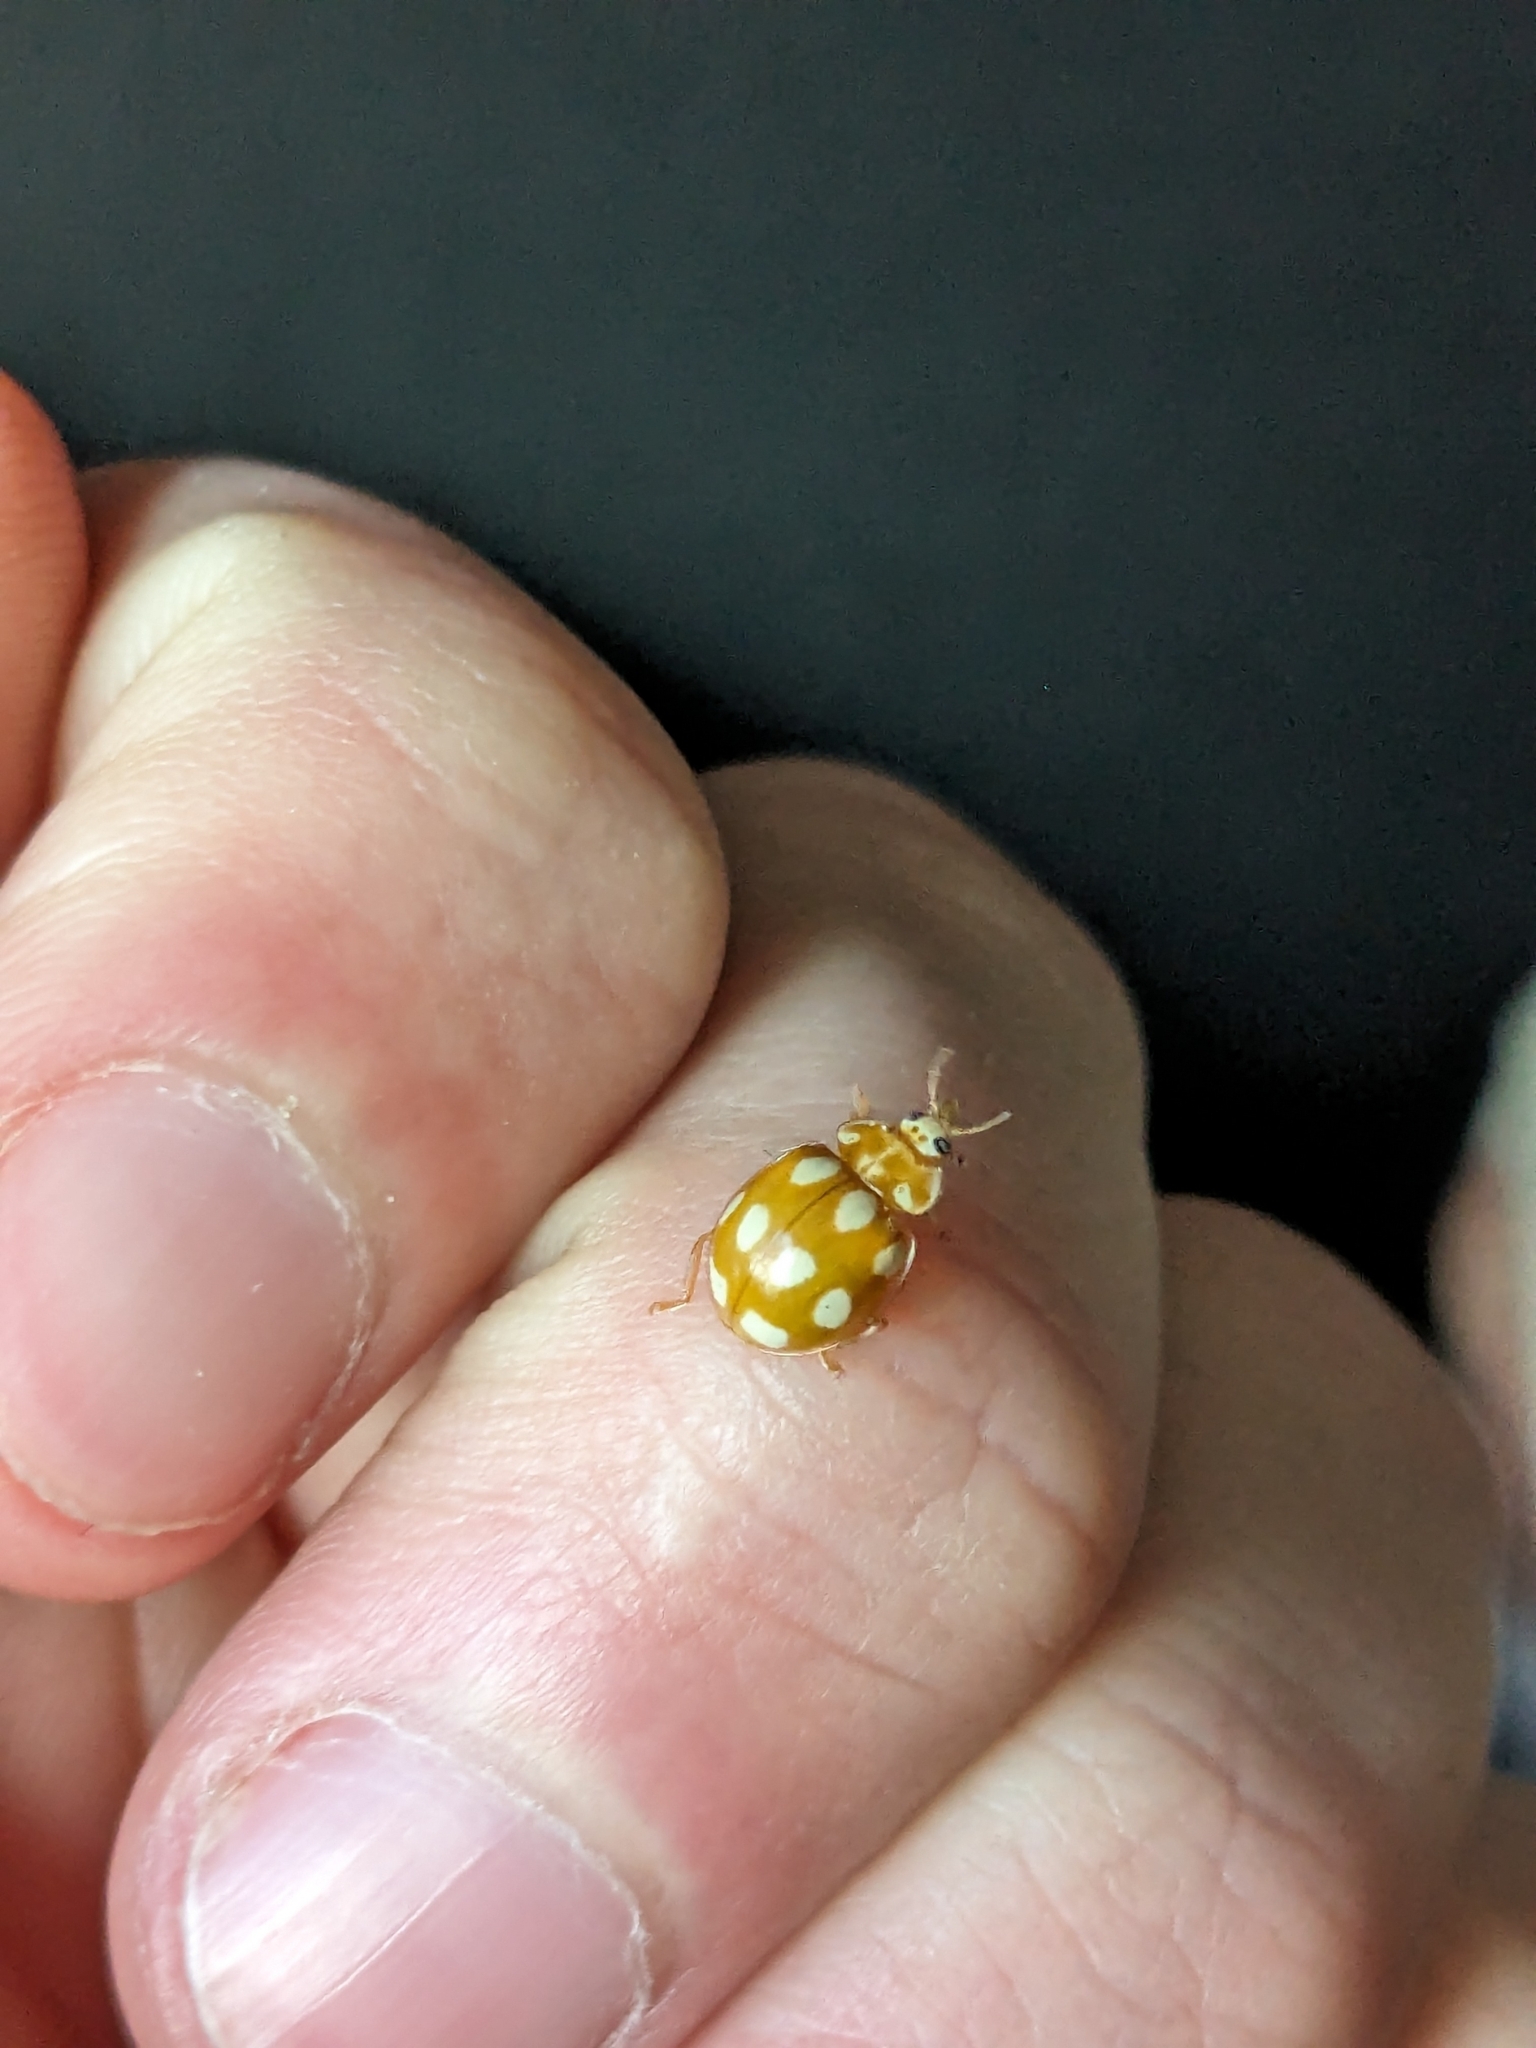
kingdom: Animalia
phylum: Arthropoda
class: Insecta
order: Coleoptera
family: Coccinellidae
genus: Calvia
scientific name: Calvia decemguttata
